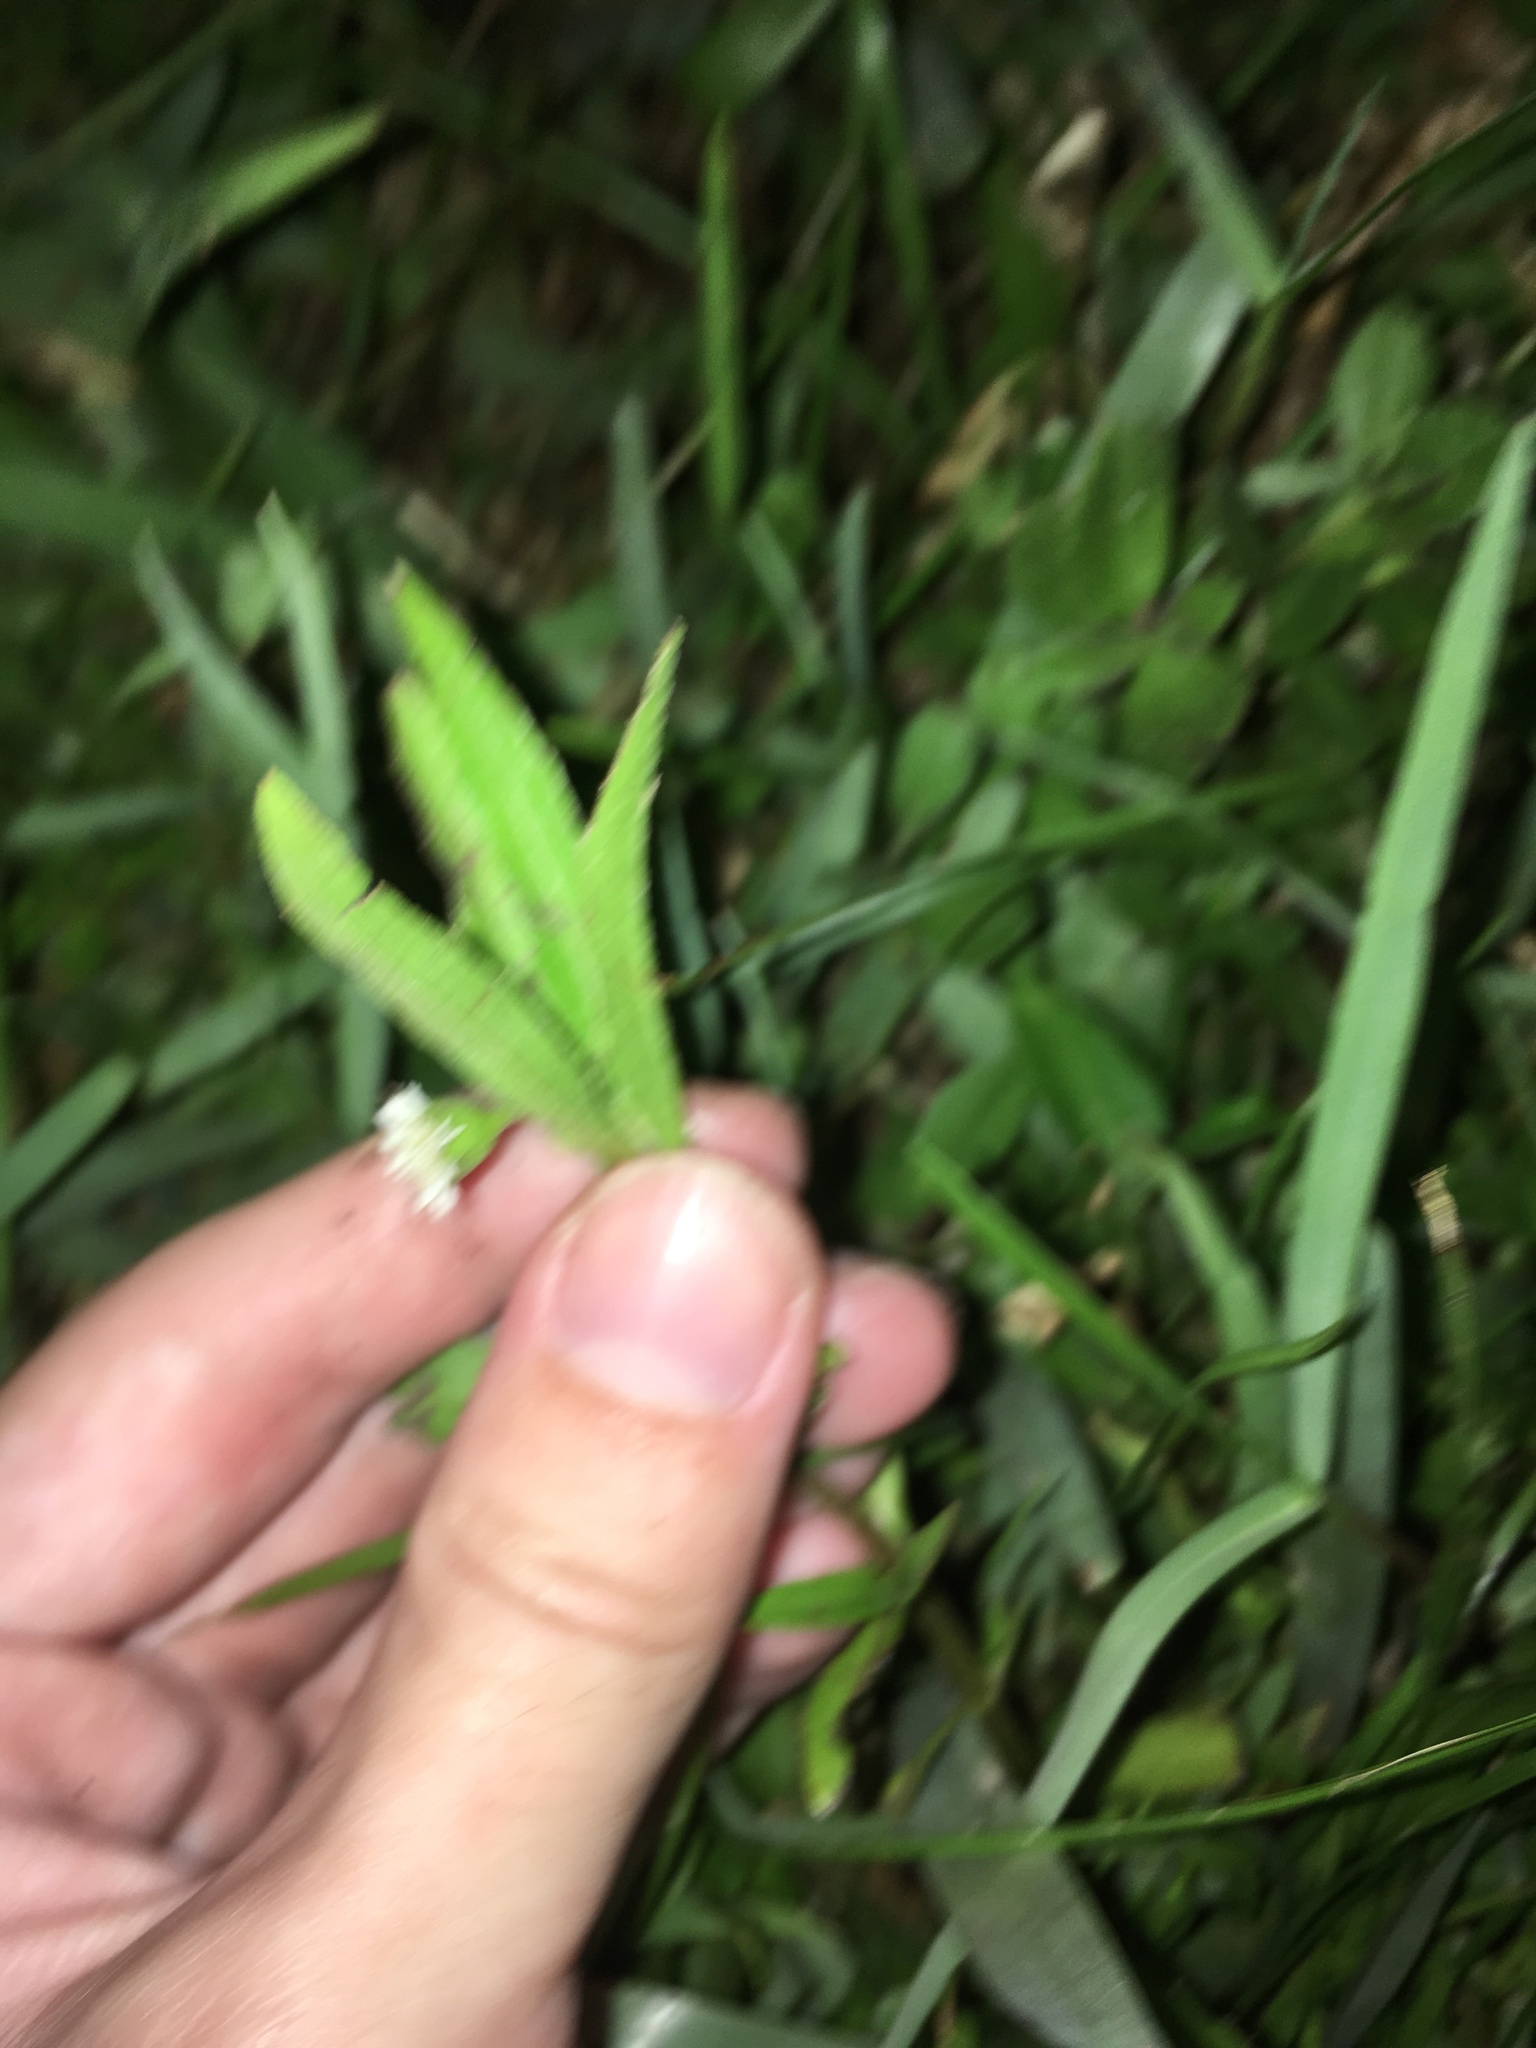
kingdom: Plantae
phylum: Tracheophyta
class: Magnoliopsida
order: Asterales
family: Asteraceae
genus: Eclipta
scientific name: Eclipta prostrata
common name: False daisy
